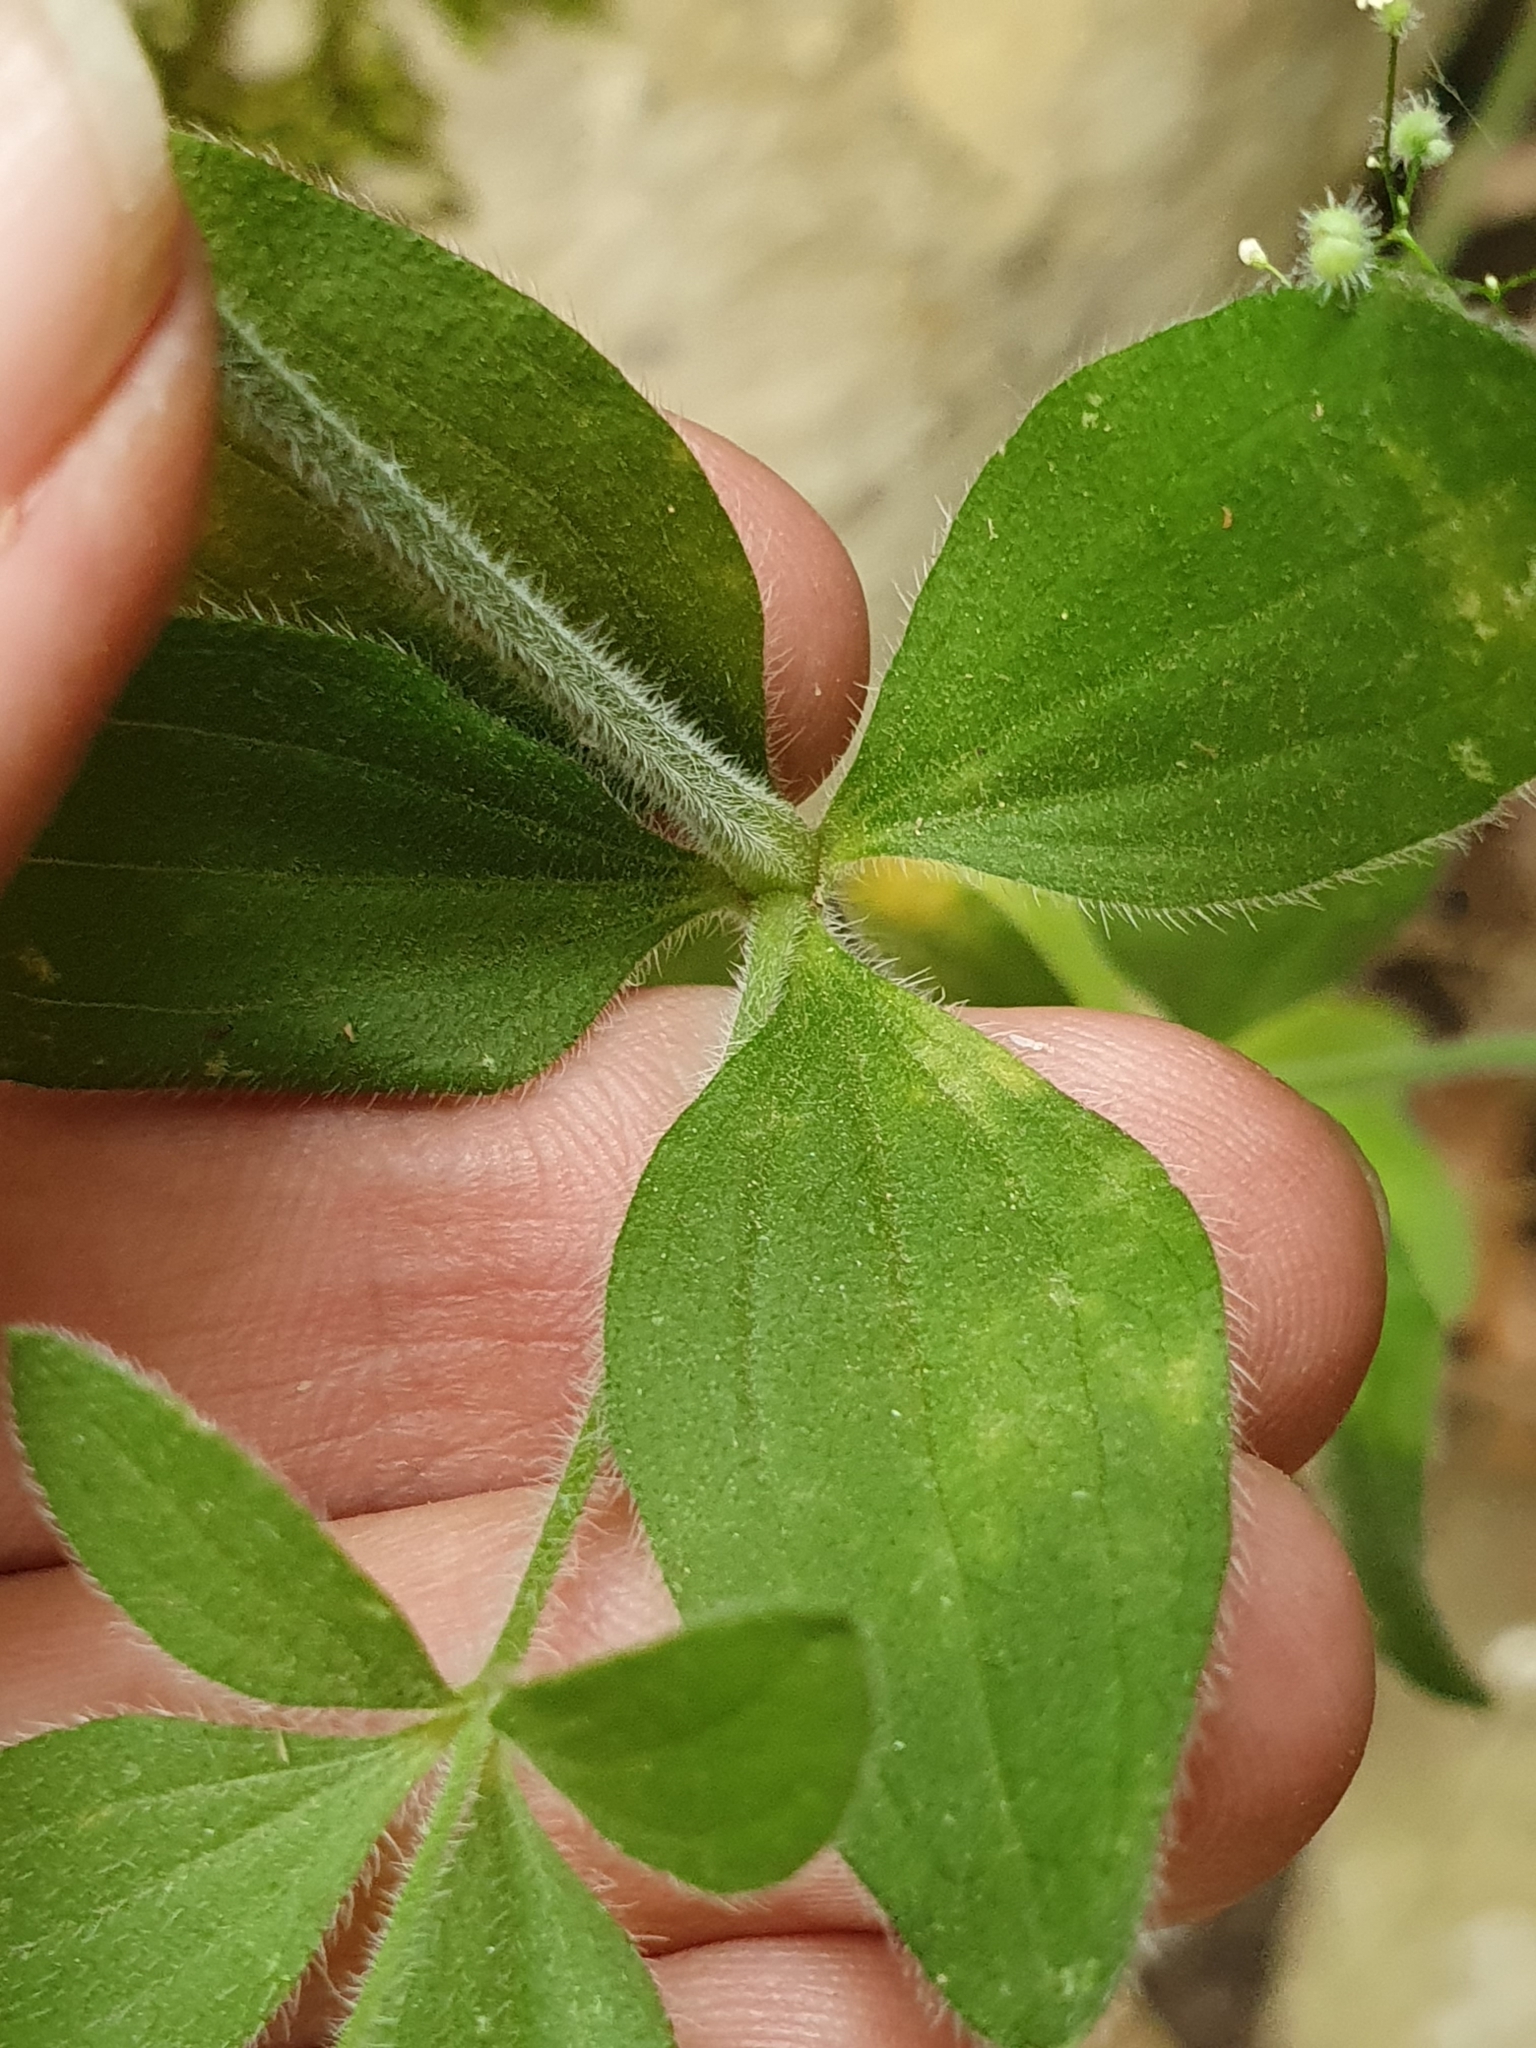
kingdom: Plantae
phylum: Tracheophyta
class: Magnoliopsida
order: Gentianales
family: Rubiaceae
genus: Galium
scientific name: Galium scabrum
